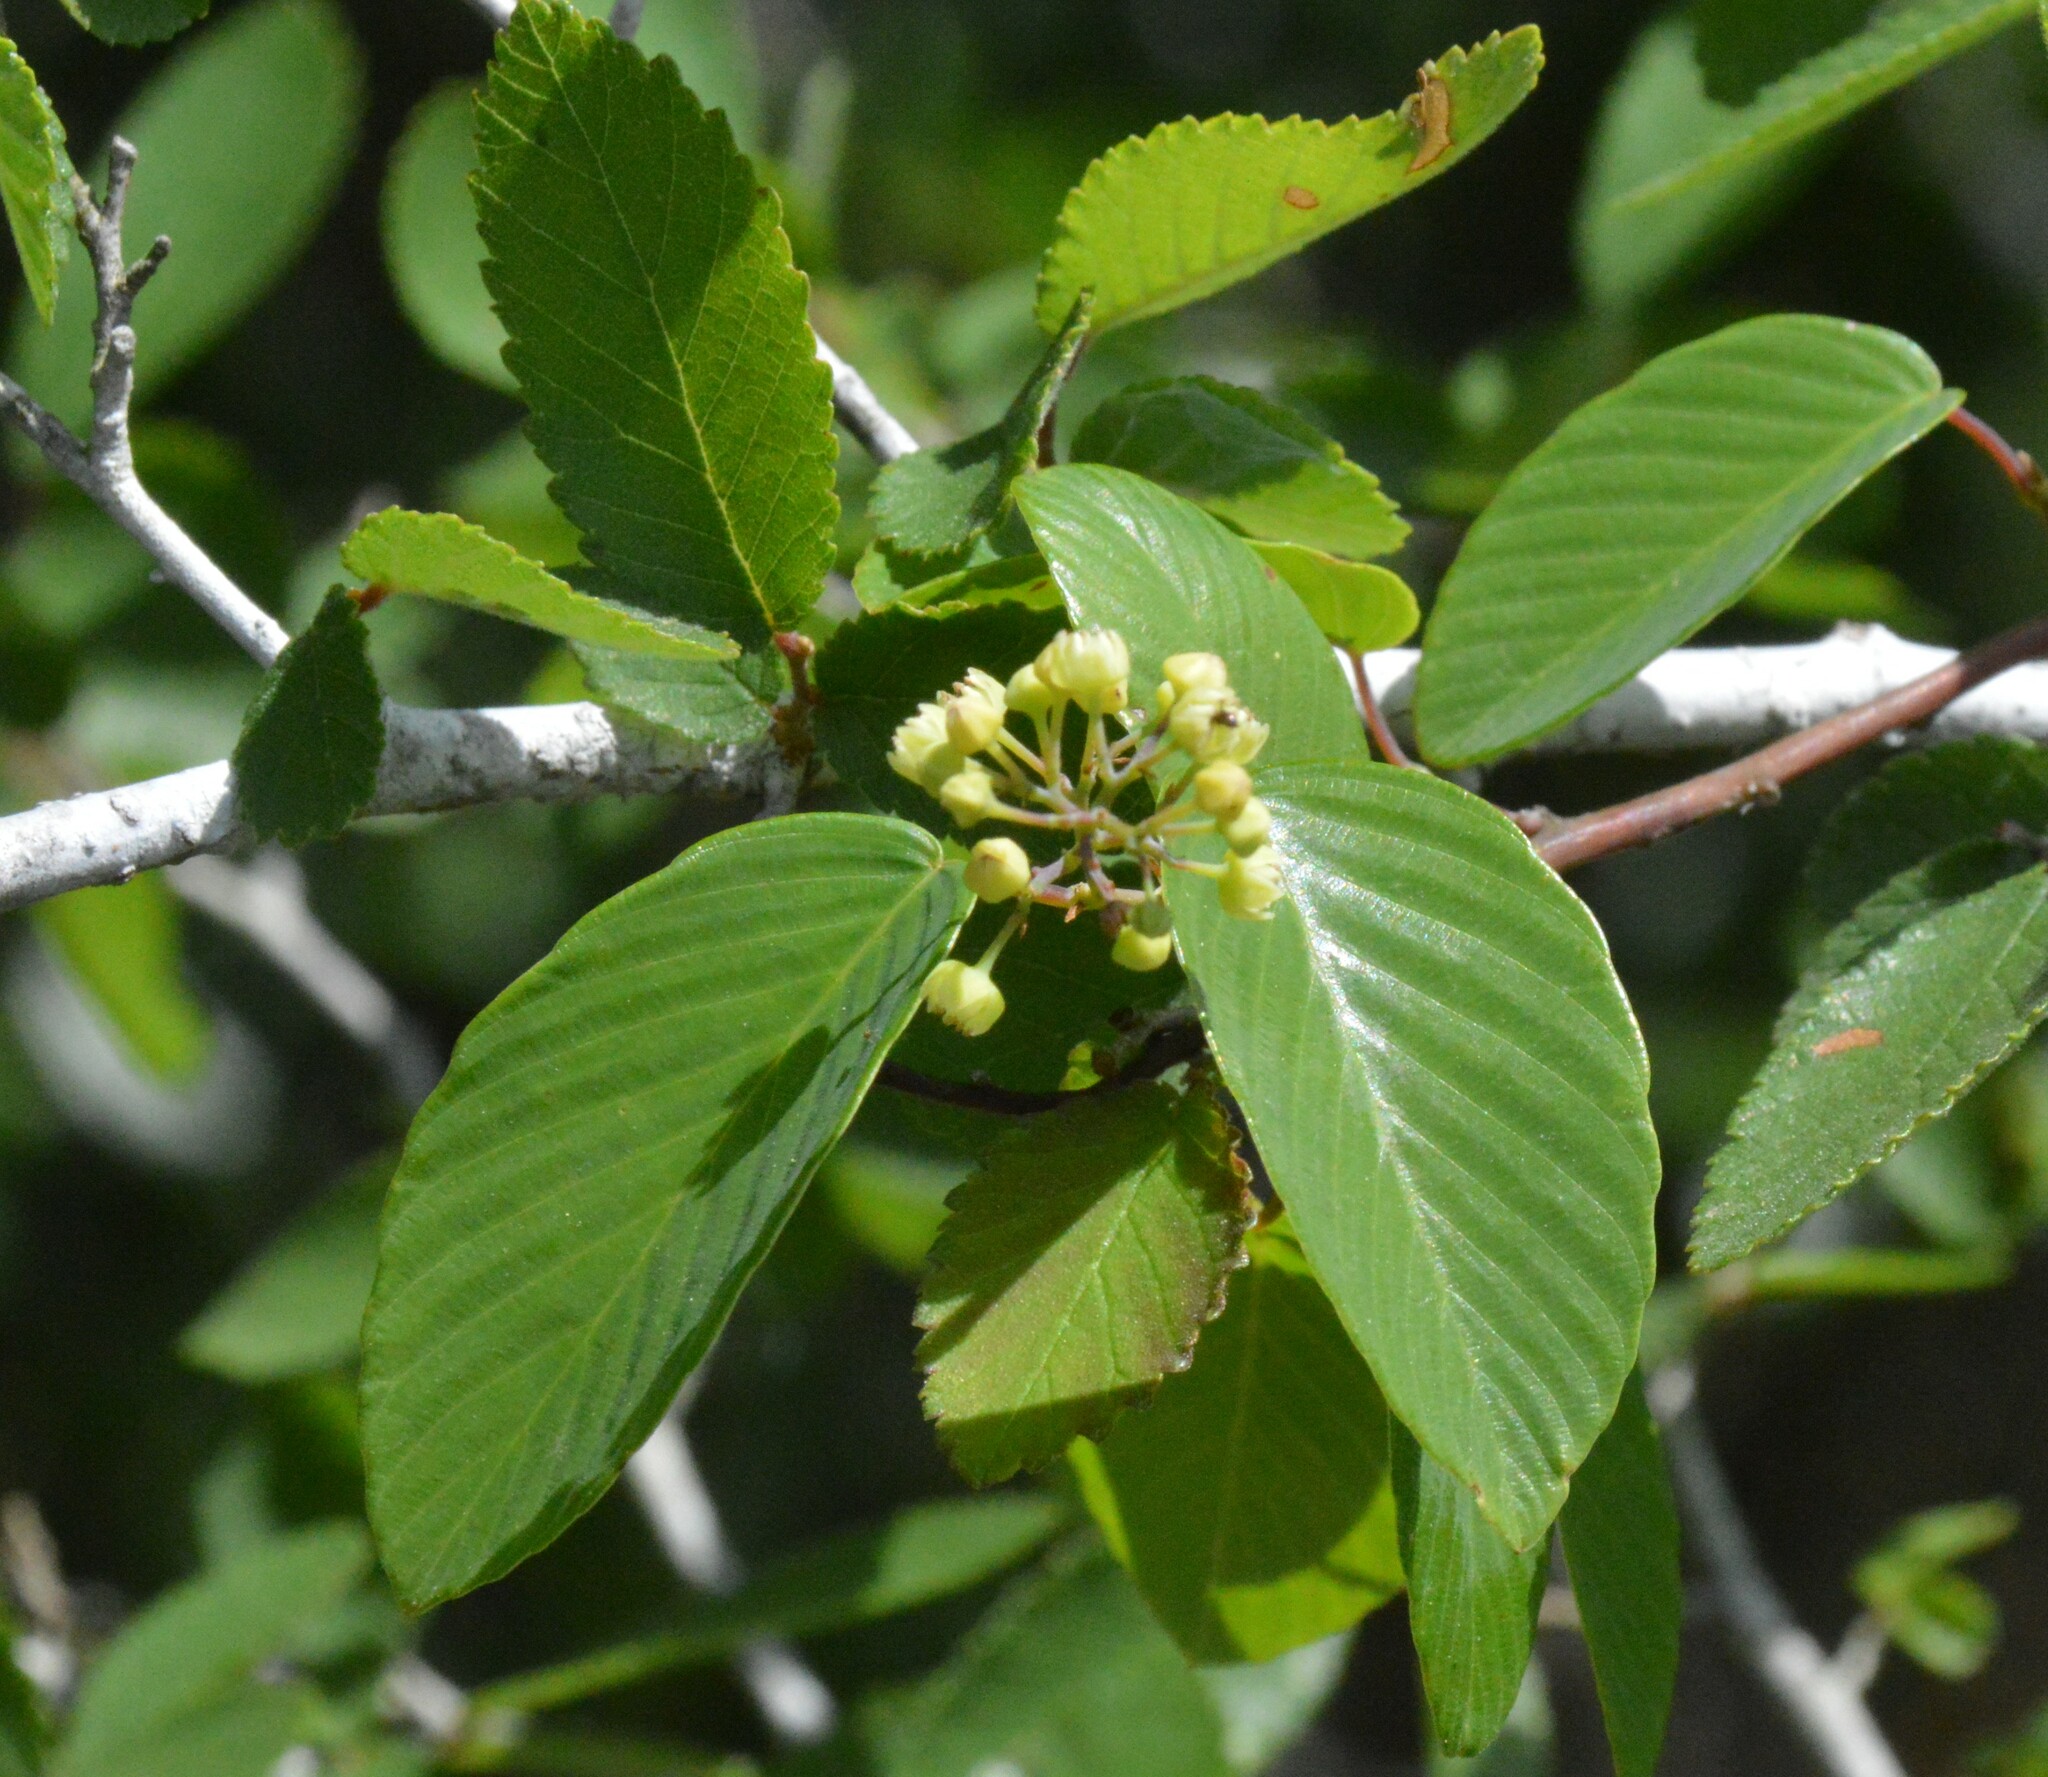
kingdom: Plantae
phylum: Tracheophyta
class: Magnoliopsida
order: Rosales
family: Rhamnaceae
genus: Berchemia
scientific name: Berchemia scandens
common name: Supplejack
